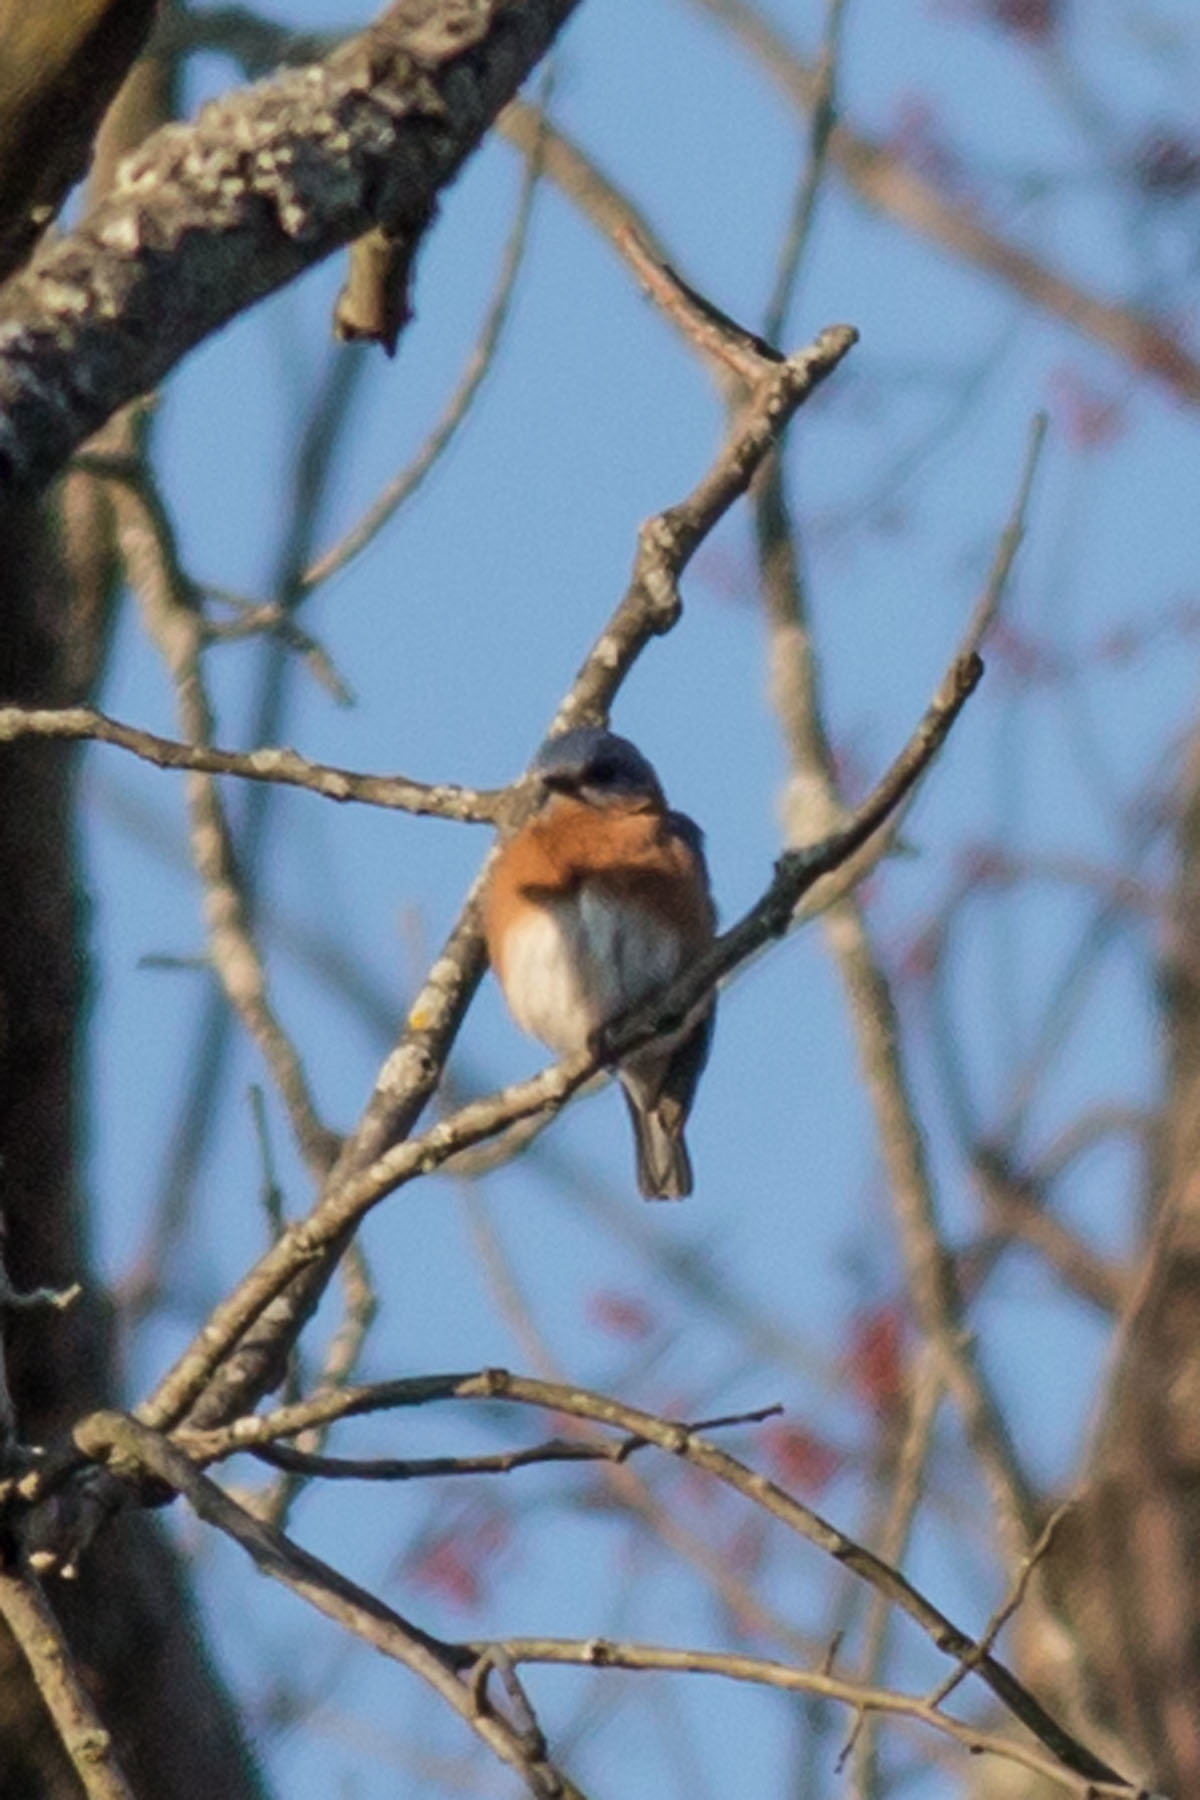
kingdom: Animalia
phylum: Chordata
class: Aves
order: Passeriformes
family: Turdidae
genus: Sialia
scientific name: Sialia sialis
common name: Eastern bluebird
